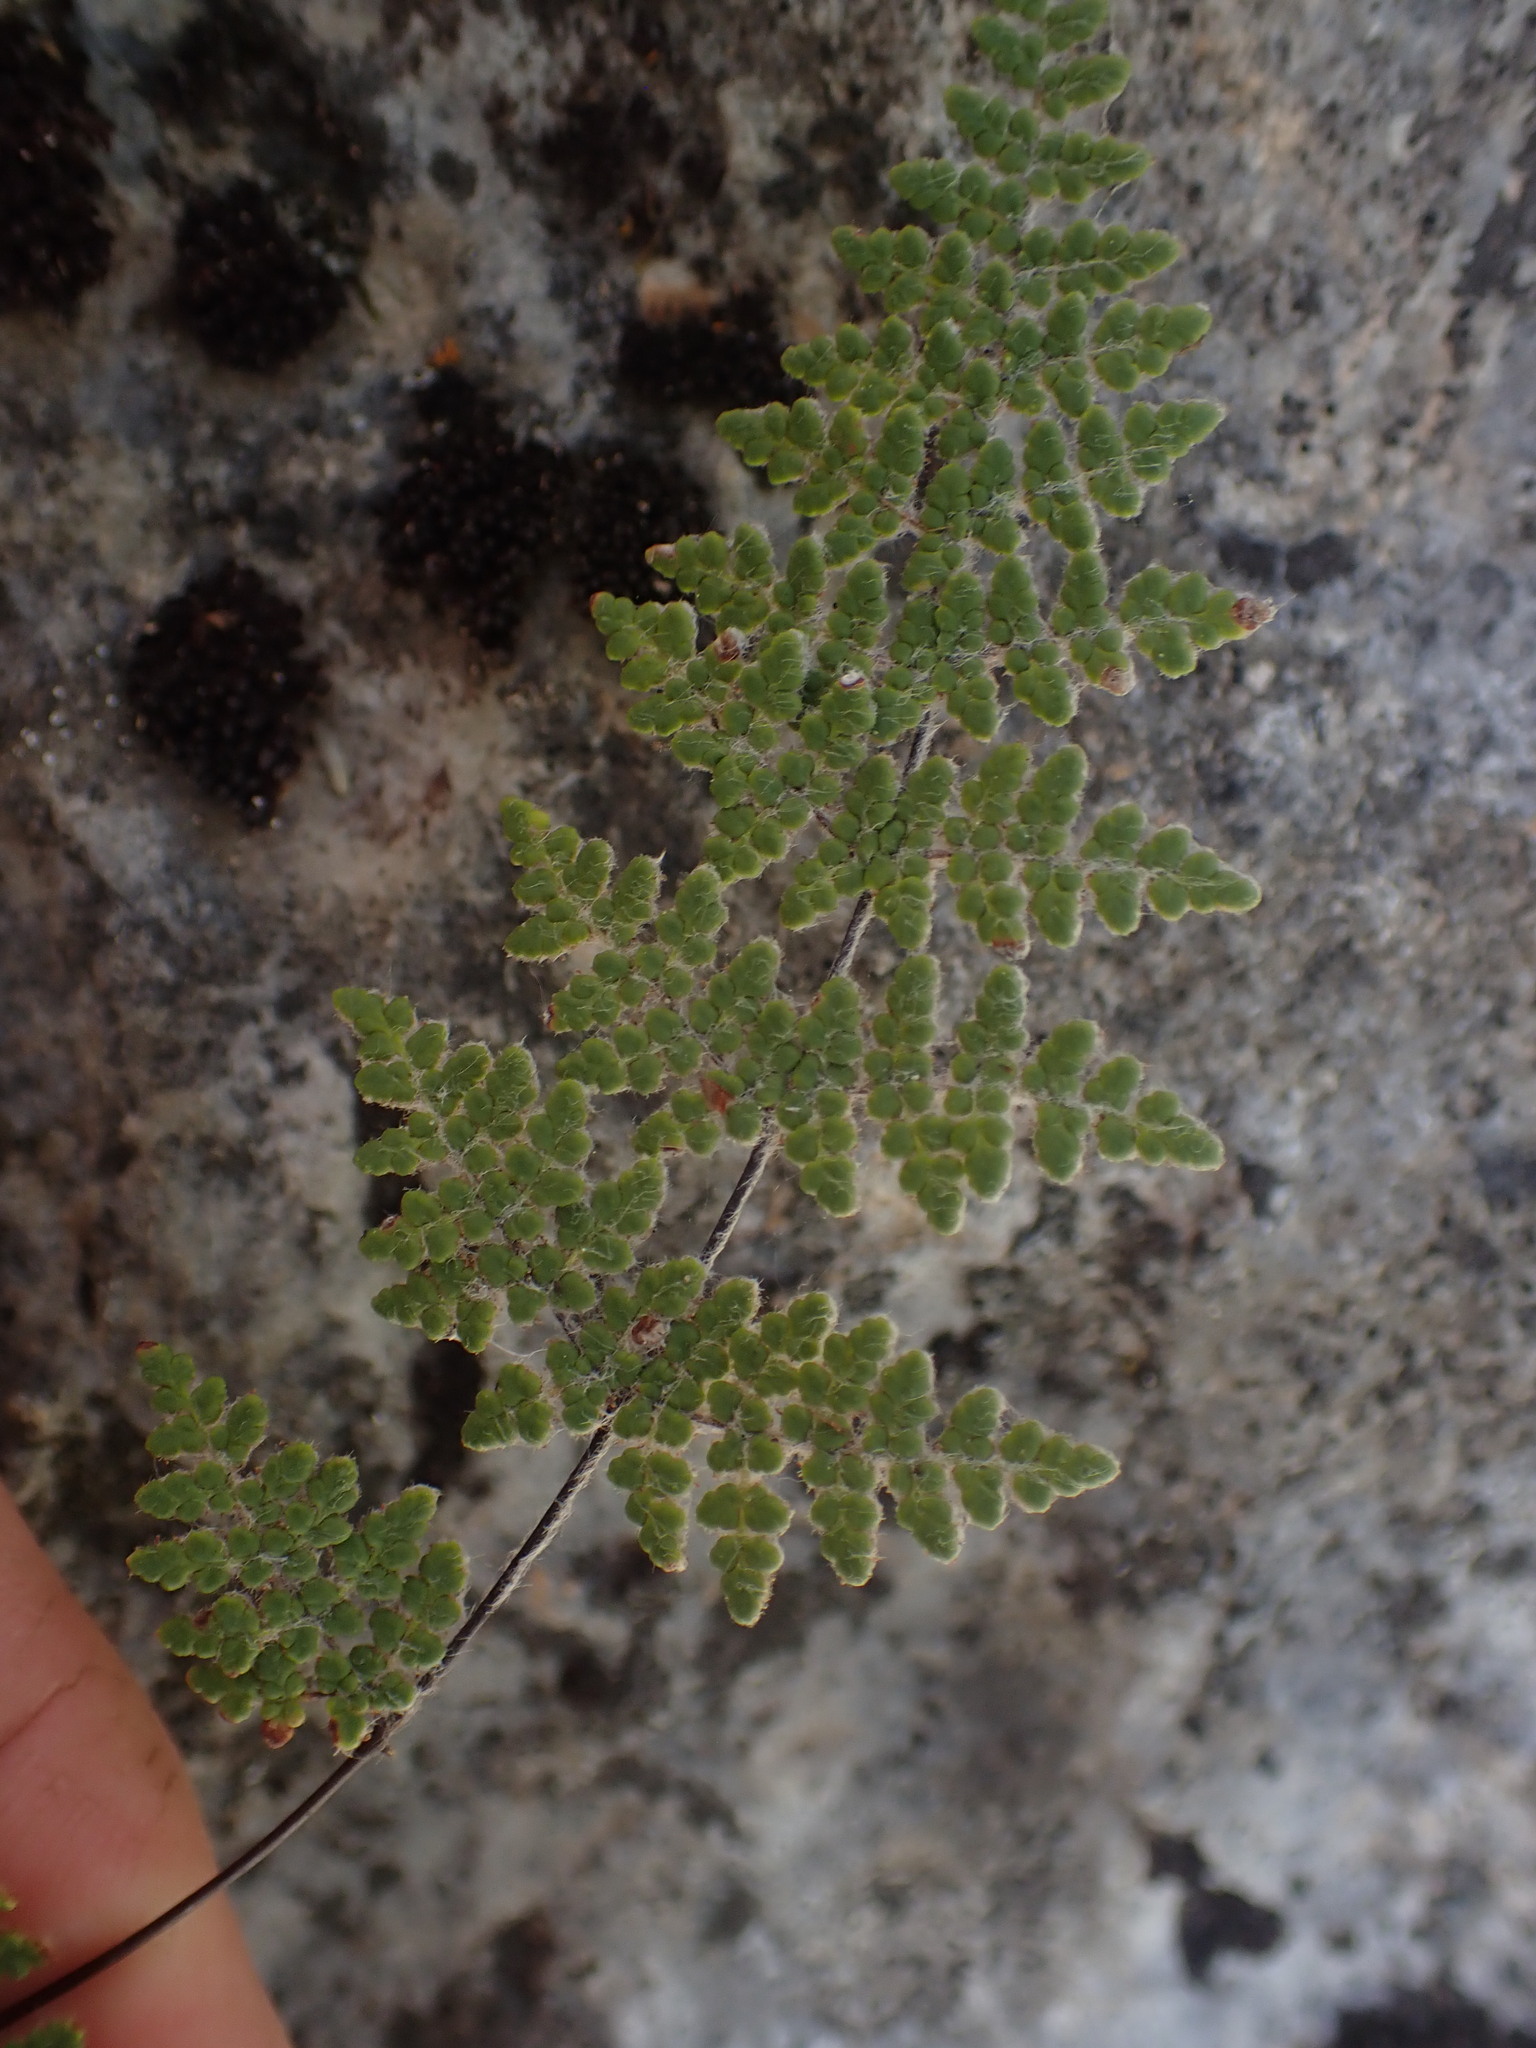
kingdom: Plantae
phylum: Tracheophyta
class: Polypodiopsida
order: Polypodiales
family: Pteridaceae
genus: Myriopteris
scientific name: Myriopteris gracilis
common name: Fee's lip fern
